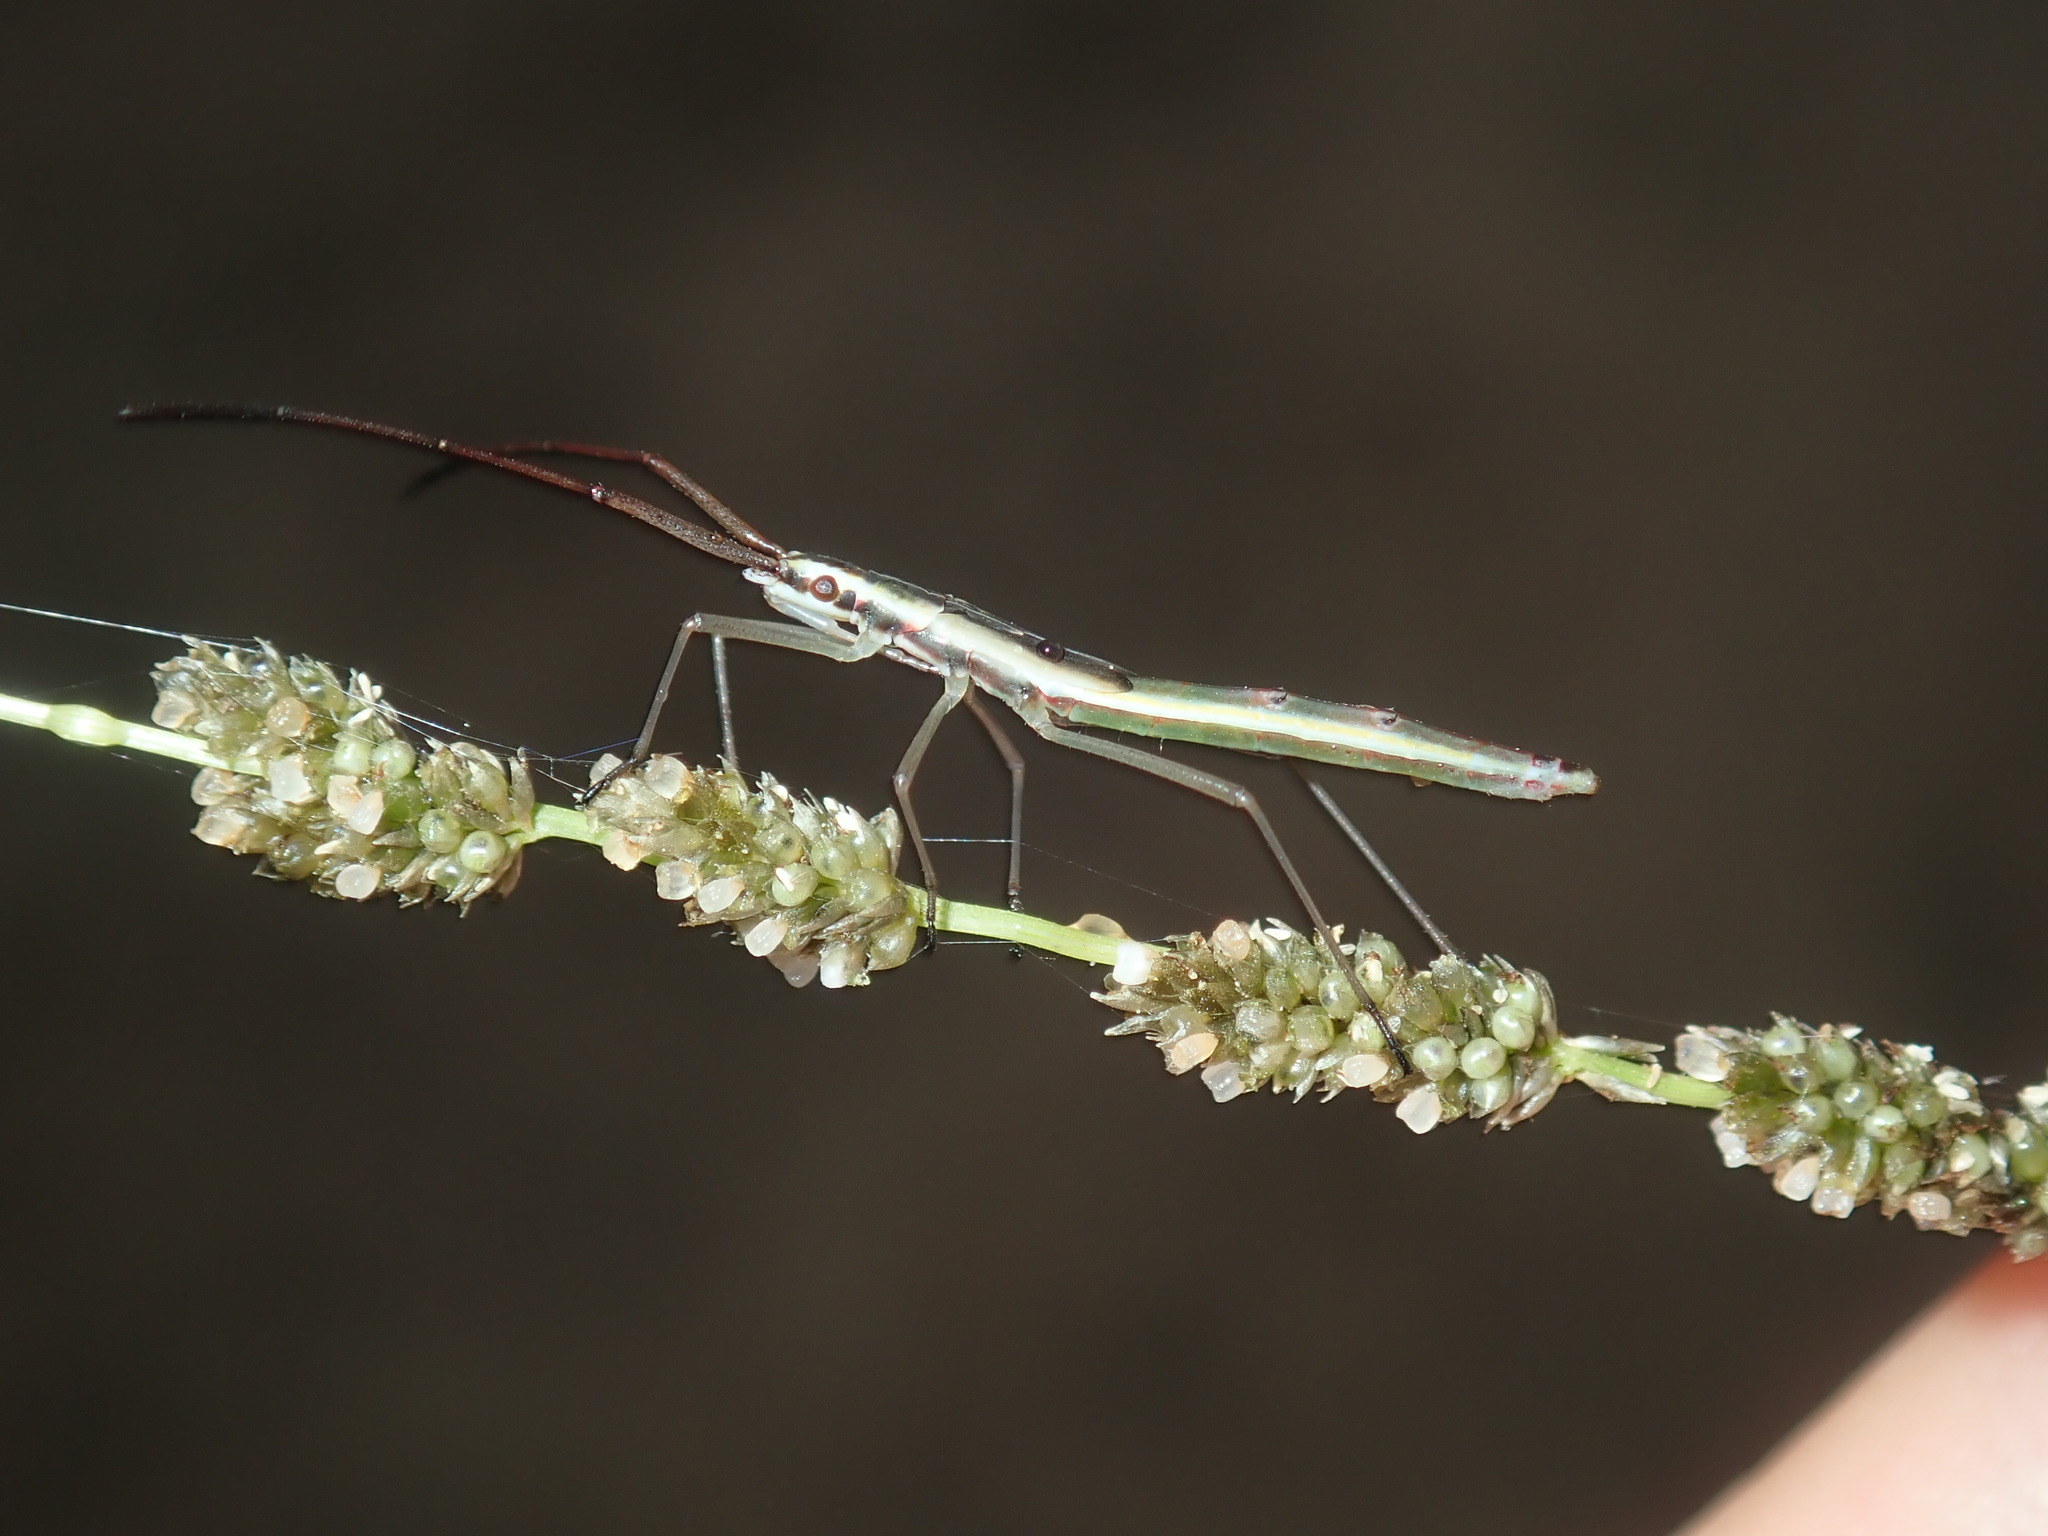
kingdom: Animalia
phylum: Arthropoda
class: Insecta
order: Hemiptera
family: Alydidae
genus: Mutusca
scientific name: Mutusca brevicornis
